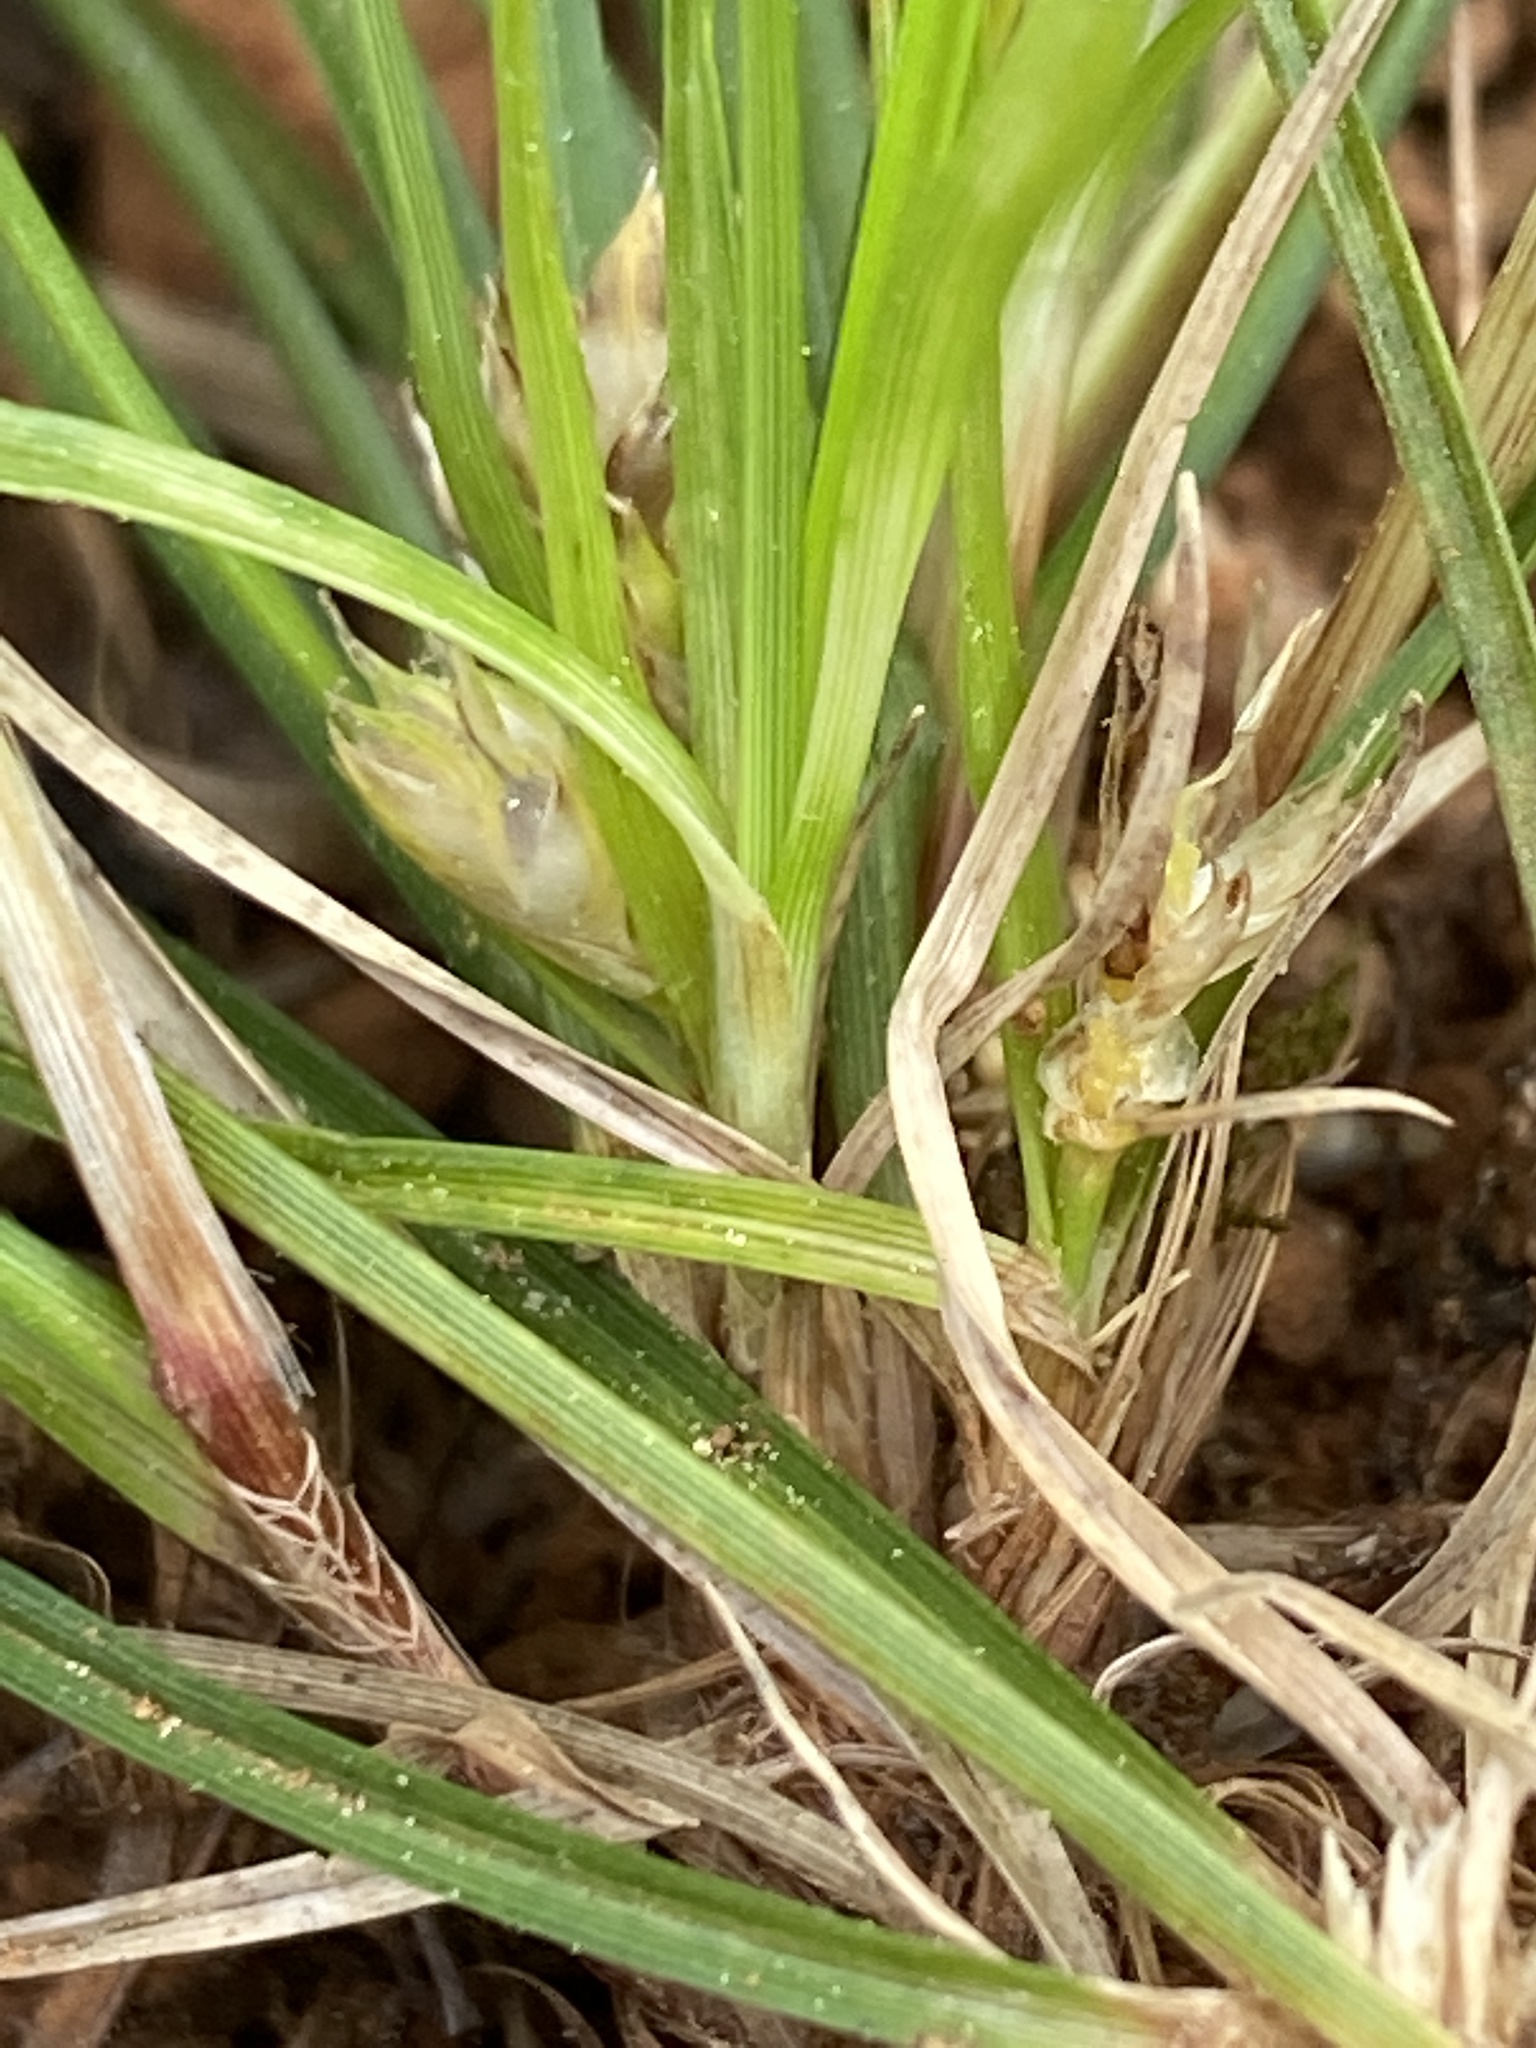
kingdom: Plantae
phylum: Tracheophyta
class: Liliopsida
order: Poales
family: Cyperaceae
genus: Carex
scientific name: Carex umbellata
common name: Early oak sedge
